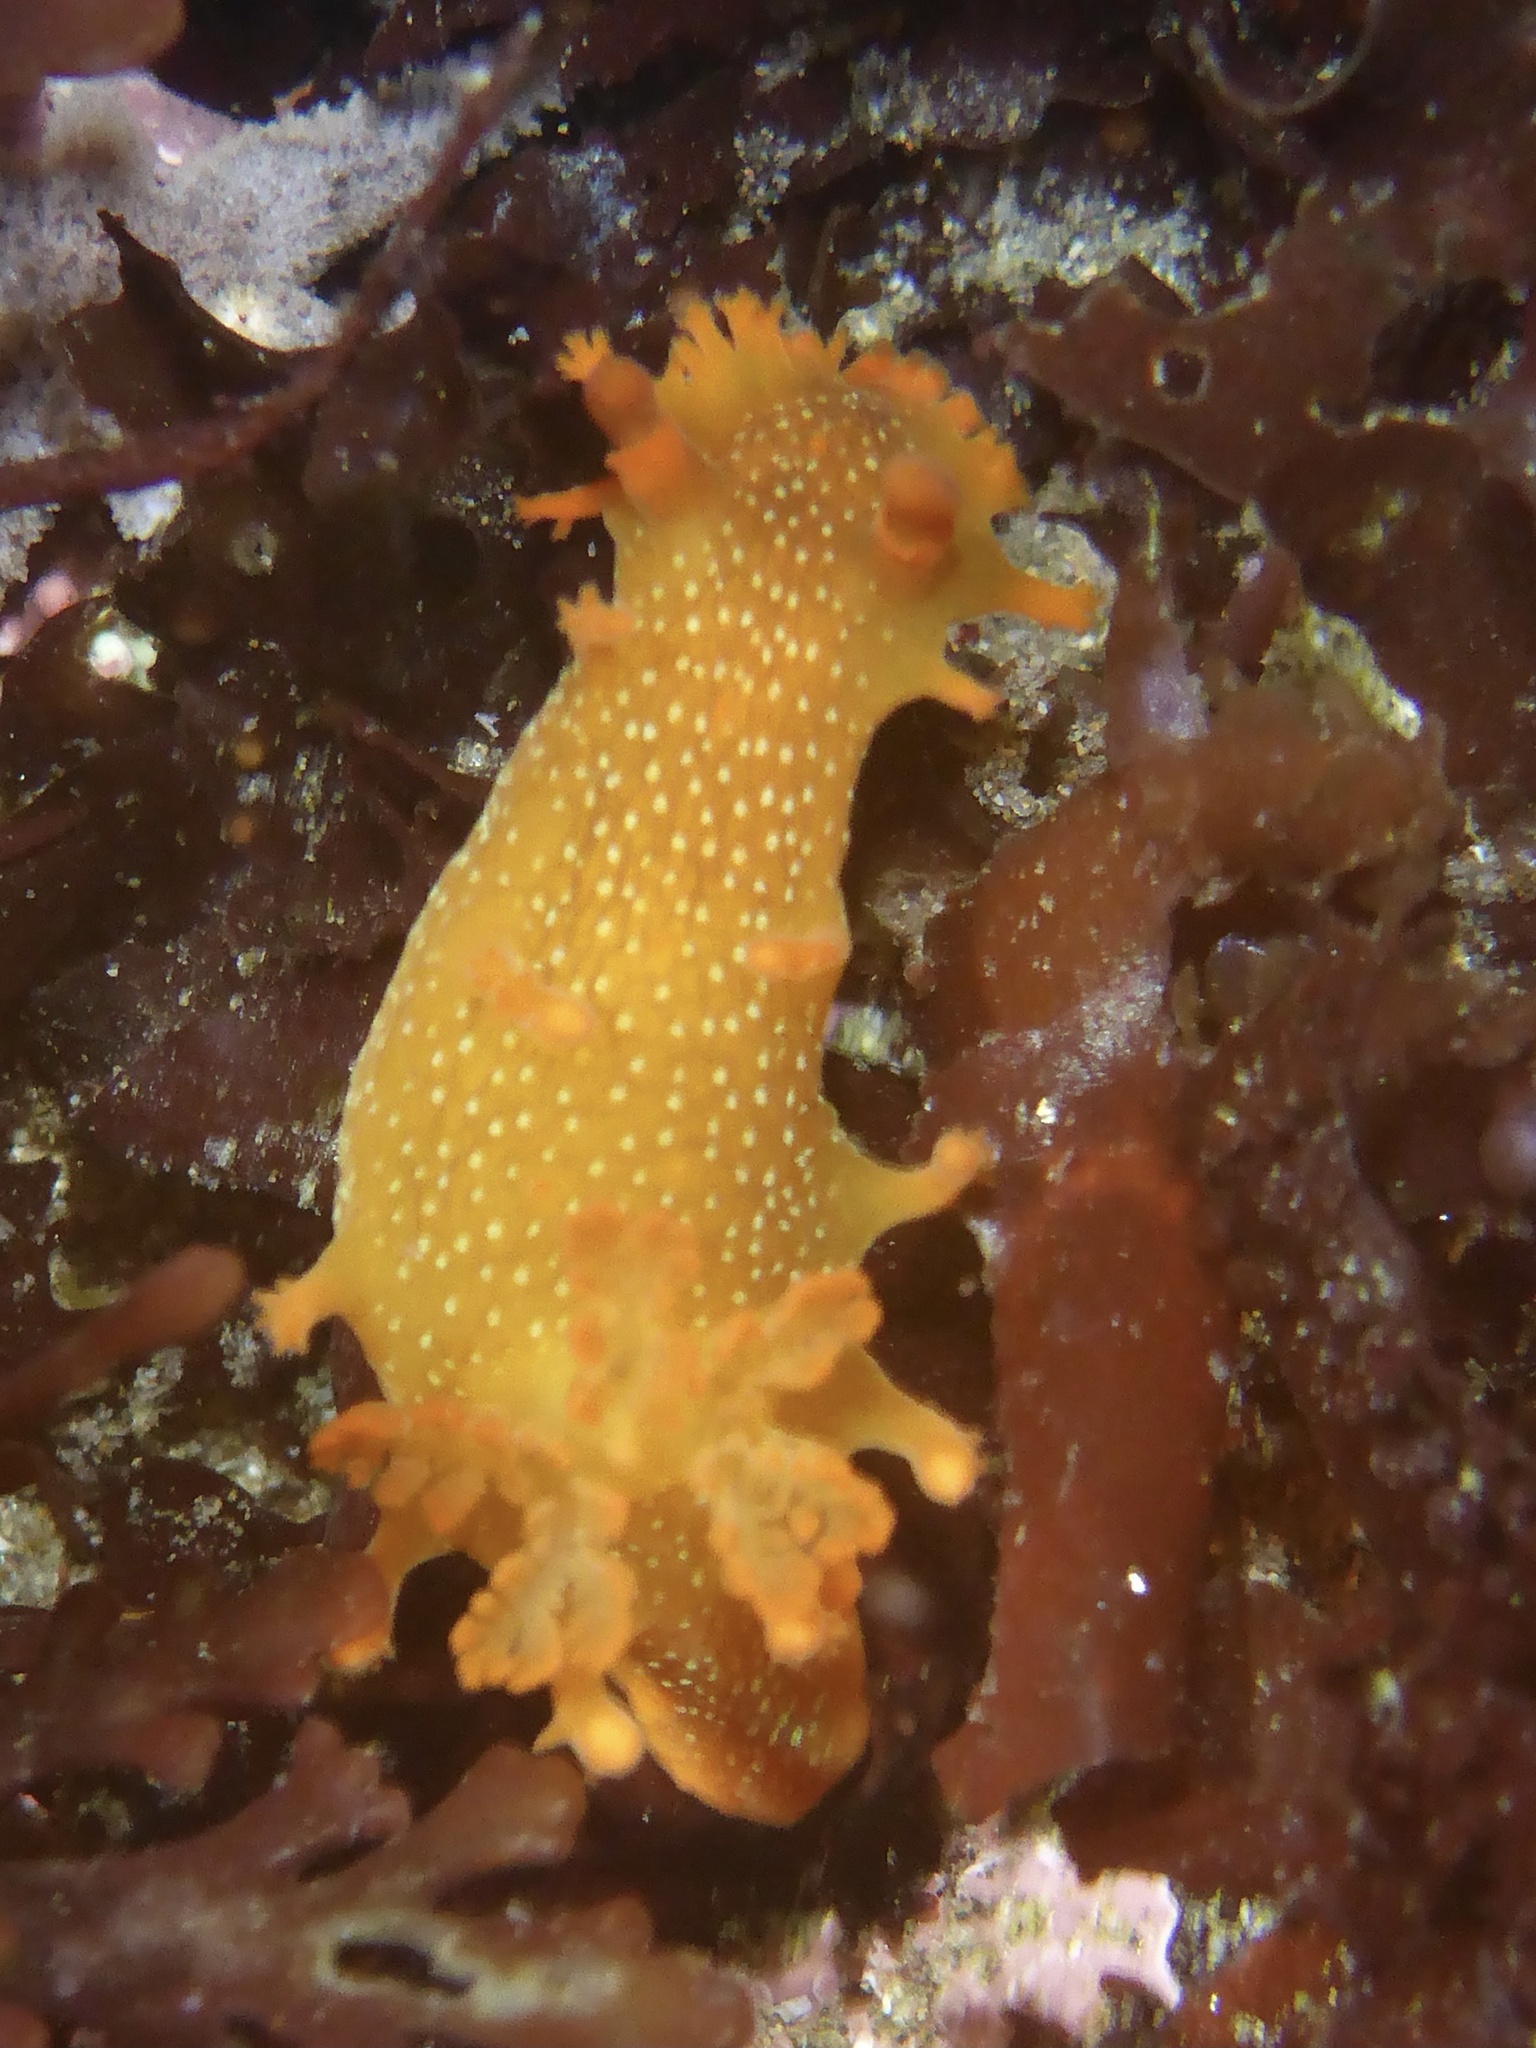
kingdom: Animalia
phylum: Mollusca
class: Gastropoda
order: Nudibranchia
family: Polyceridae
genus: Triopha
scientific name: Triopha maculata
